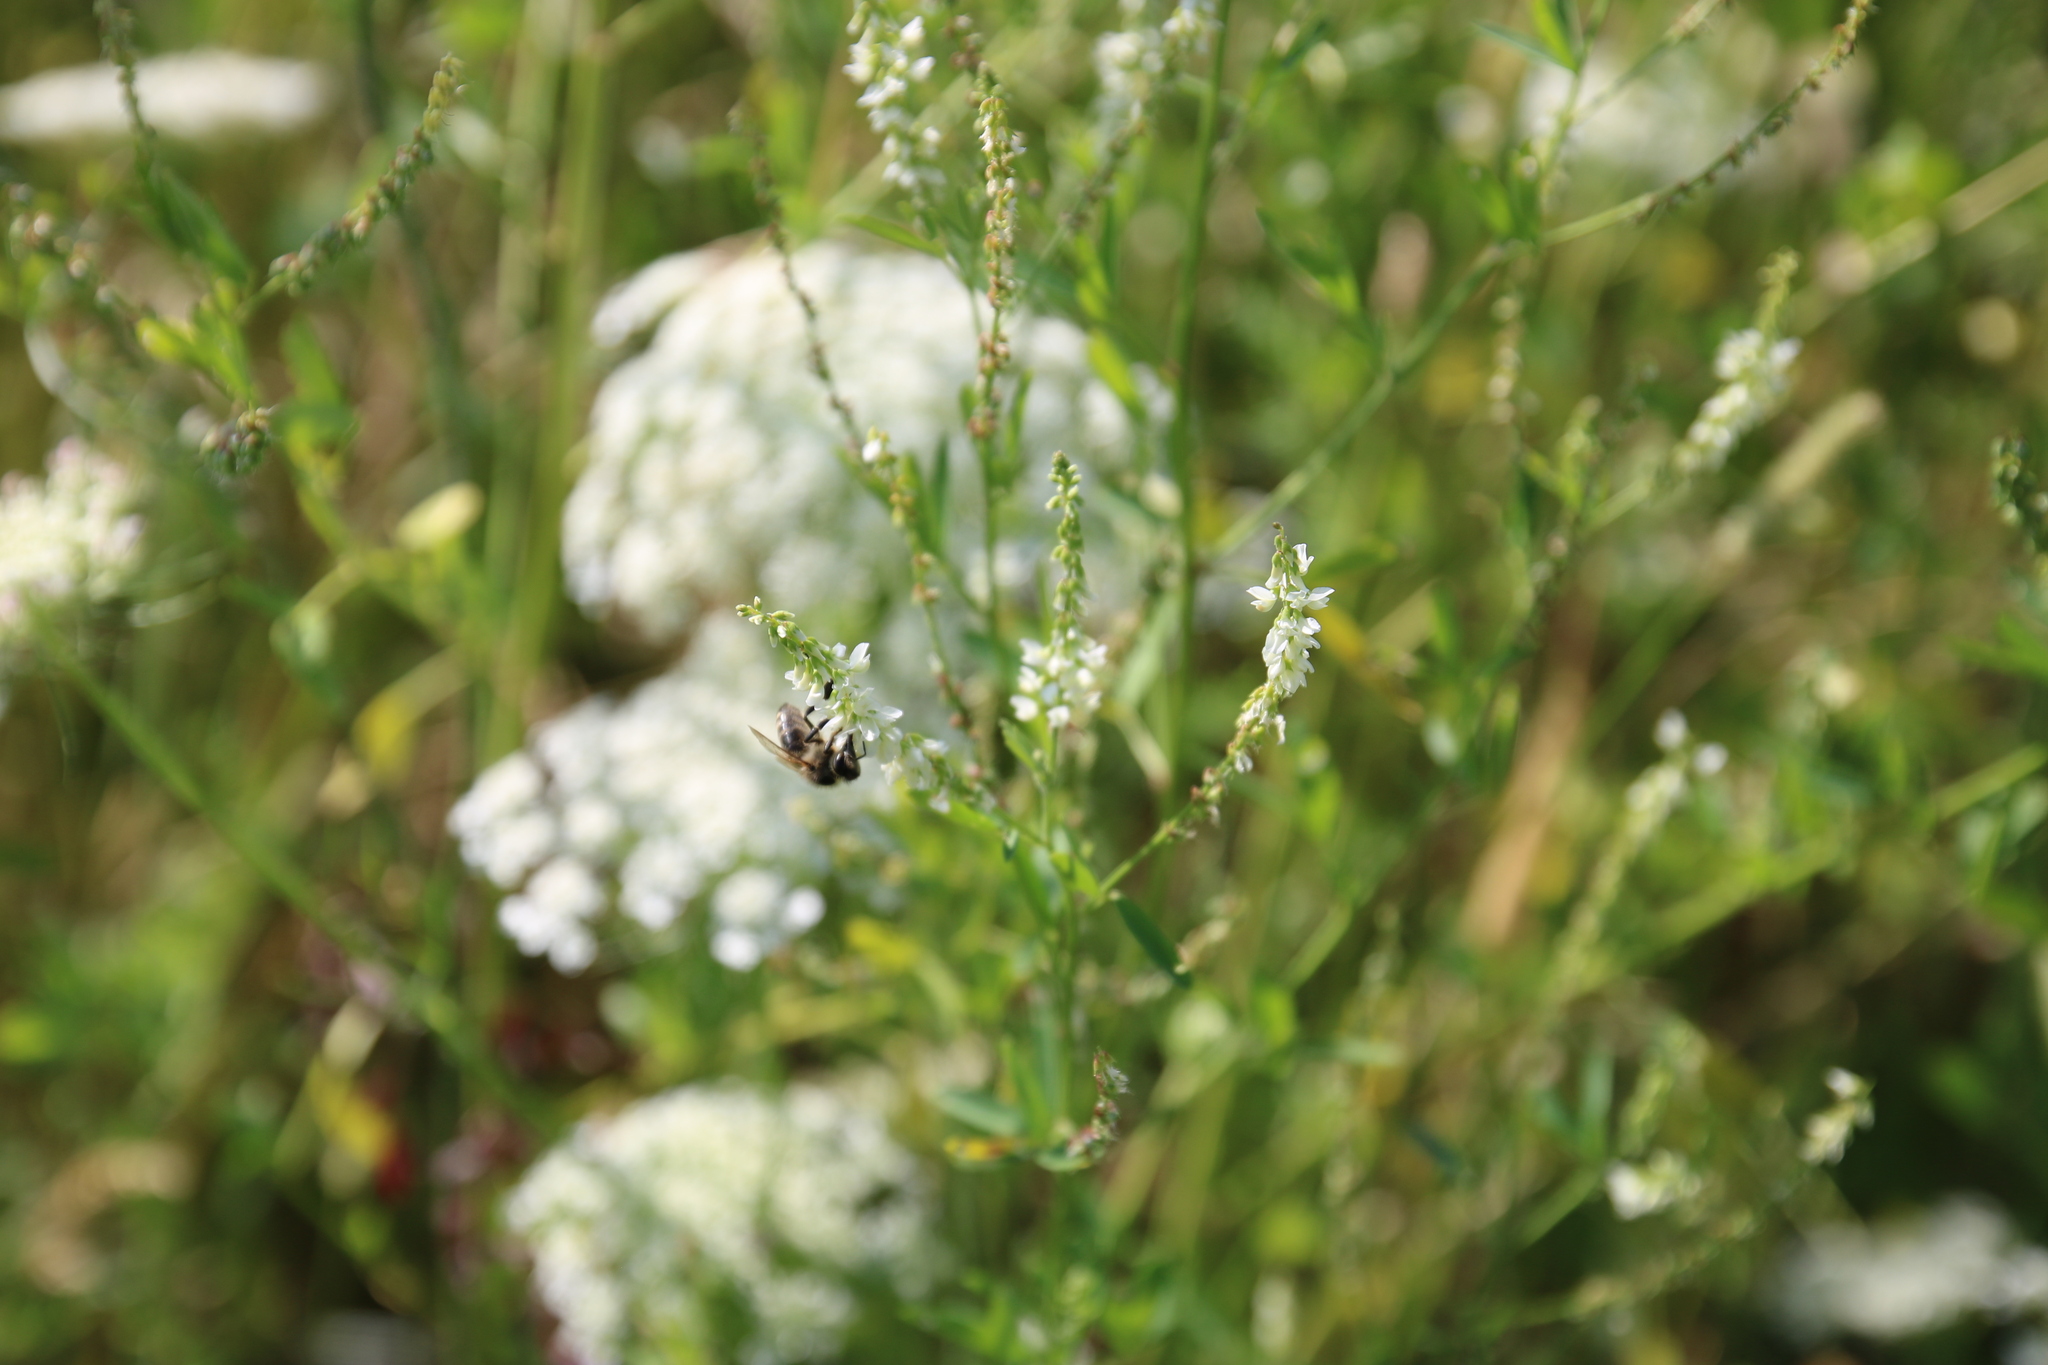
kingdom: Animalia
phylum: Arthropoda
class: Insecta
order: Hymenoptera
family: Apidae
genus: Apis
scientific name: Apis mellifera
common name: Honey bee
